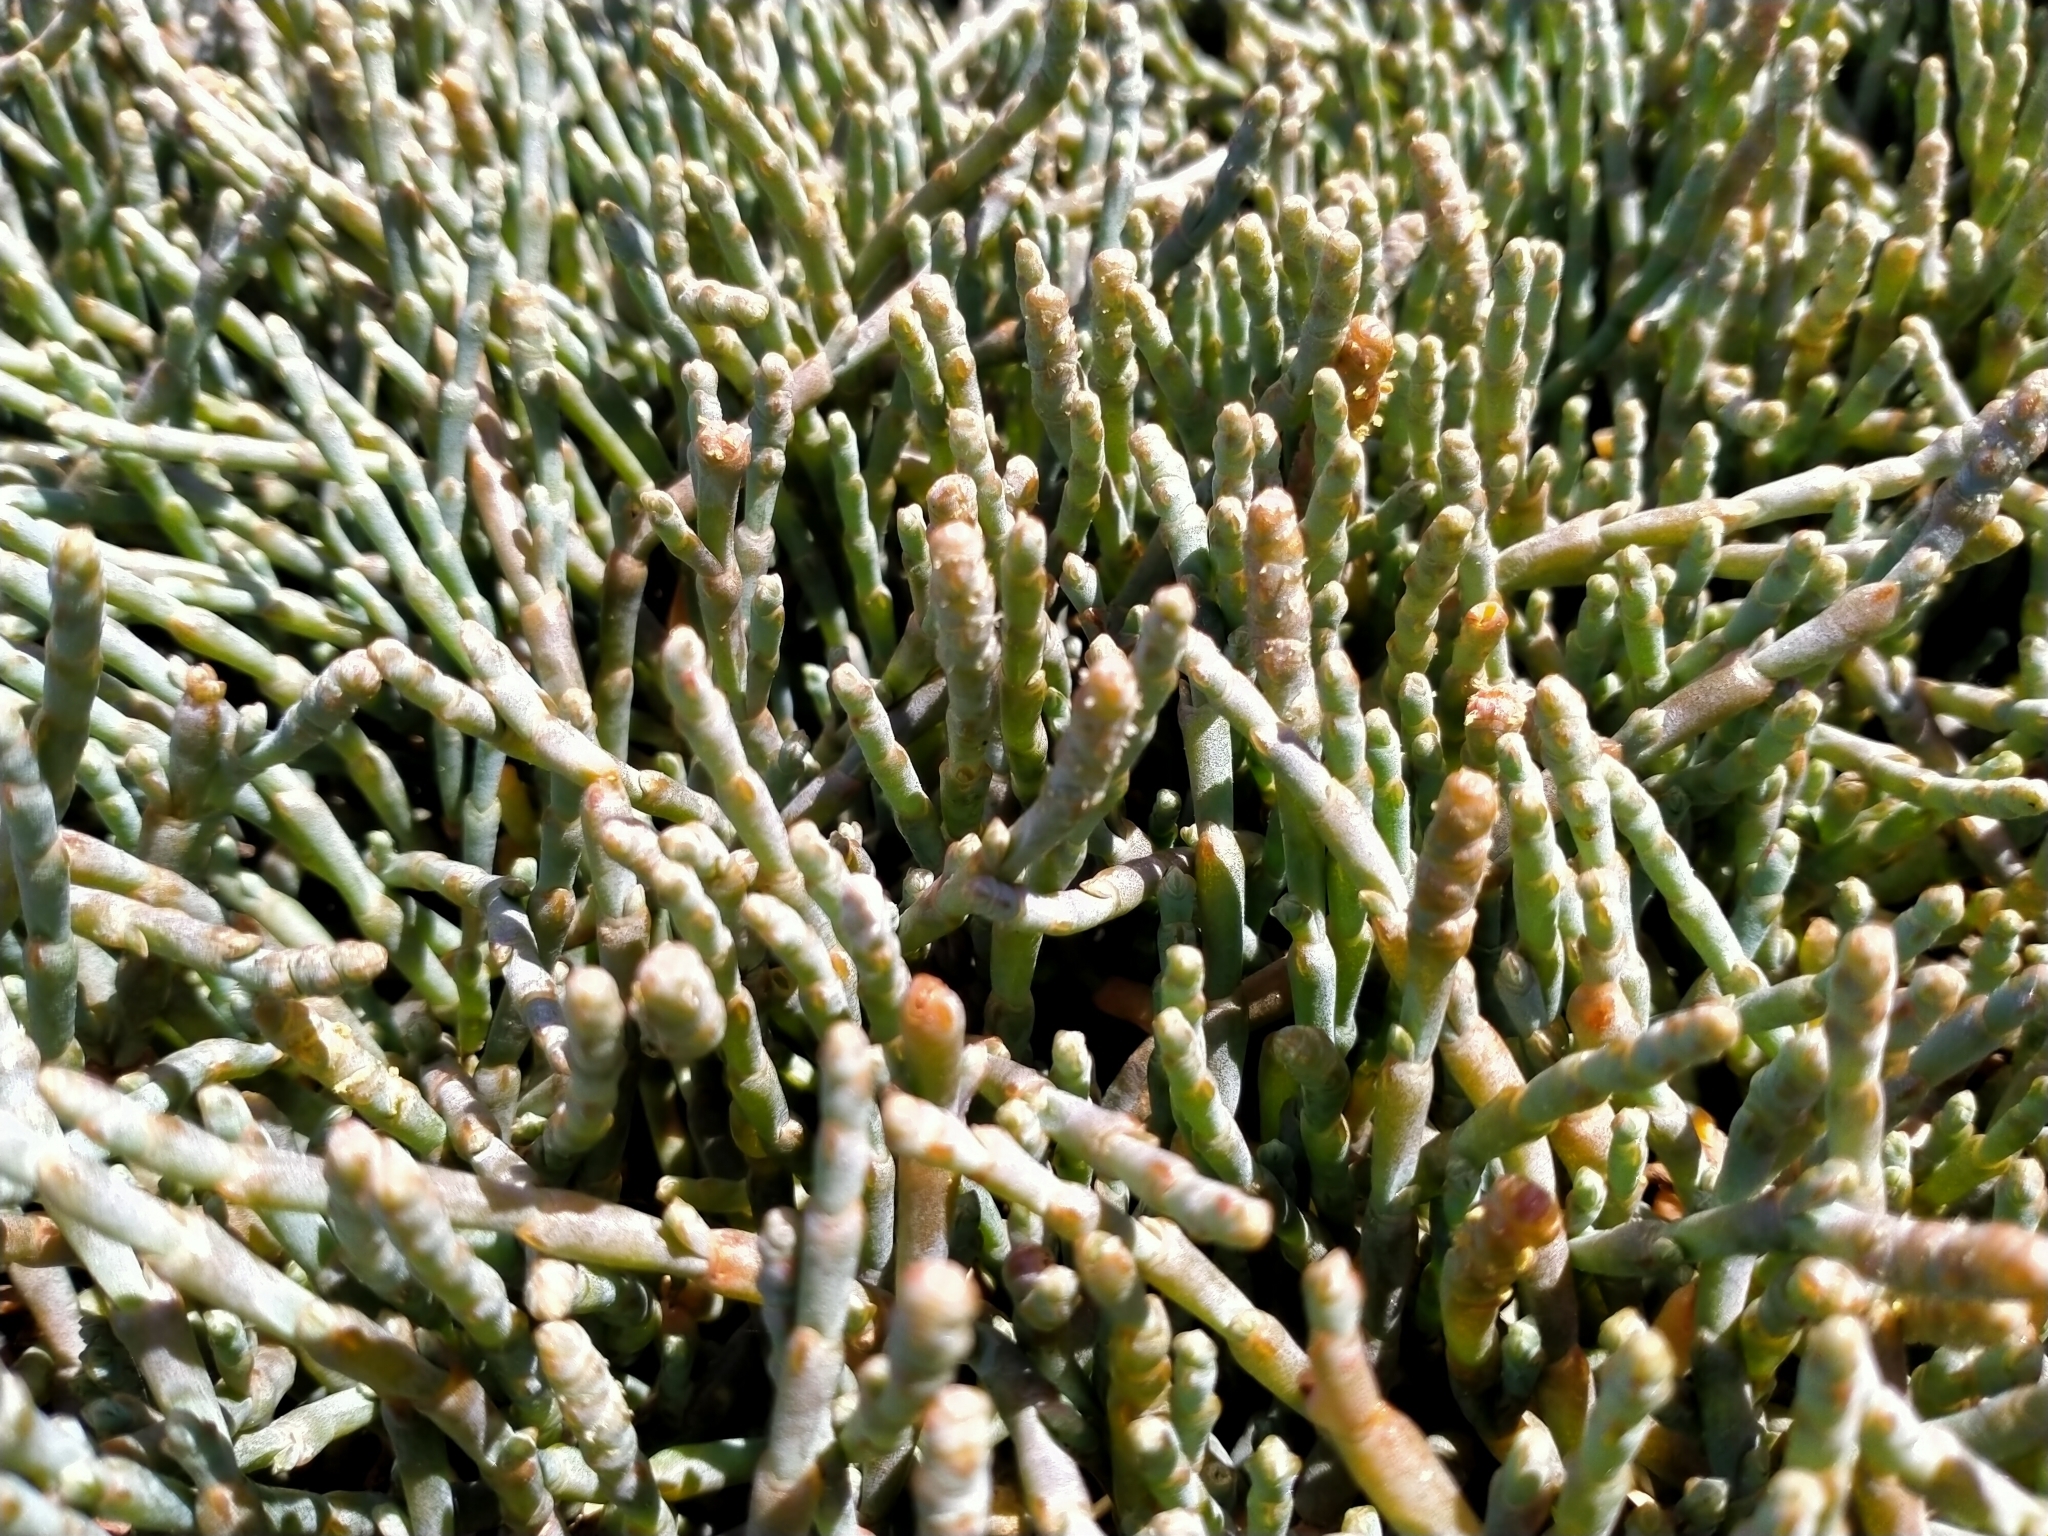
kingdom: Plantae
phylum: Tracheophyta
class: Magnoliopsida
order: Caryophyllales
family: Amaranthaceae
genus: Salicornia
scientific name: Salicornia quinqueflora
